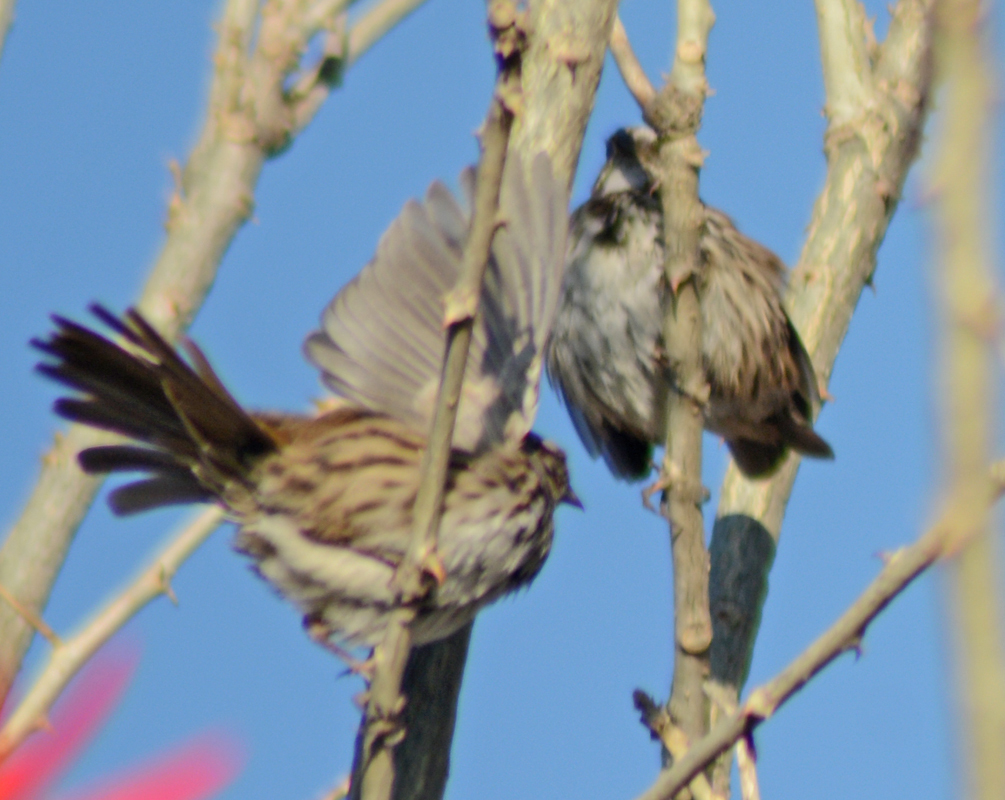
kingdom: Animalia
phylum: Chordata
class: Aves
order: Passeriformes
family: Passerellidae
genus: Melospiza
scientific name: Melospiza melodia
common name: Song sparrow
